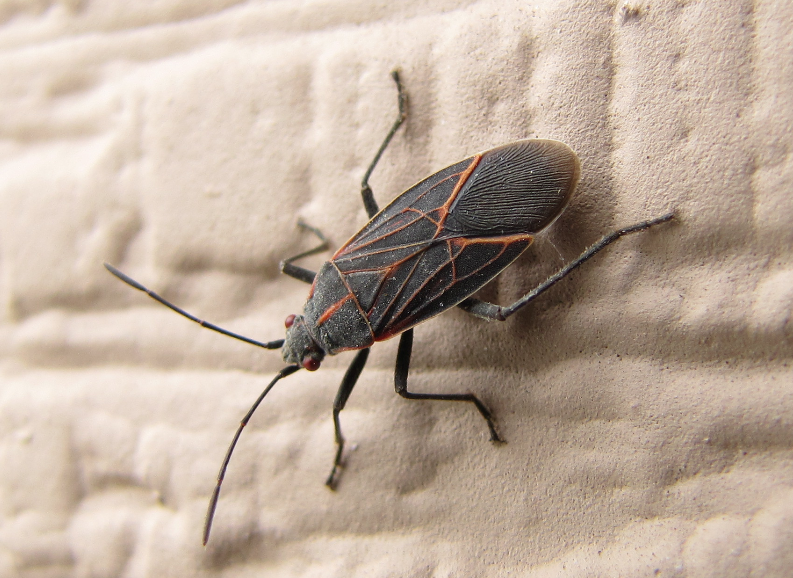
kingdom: Animalia
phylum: Arthropoda
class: Insecta
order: Hemiptera
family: Rhopalidae
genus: Boisea
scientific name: Boisea rubrolineata
